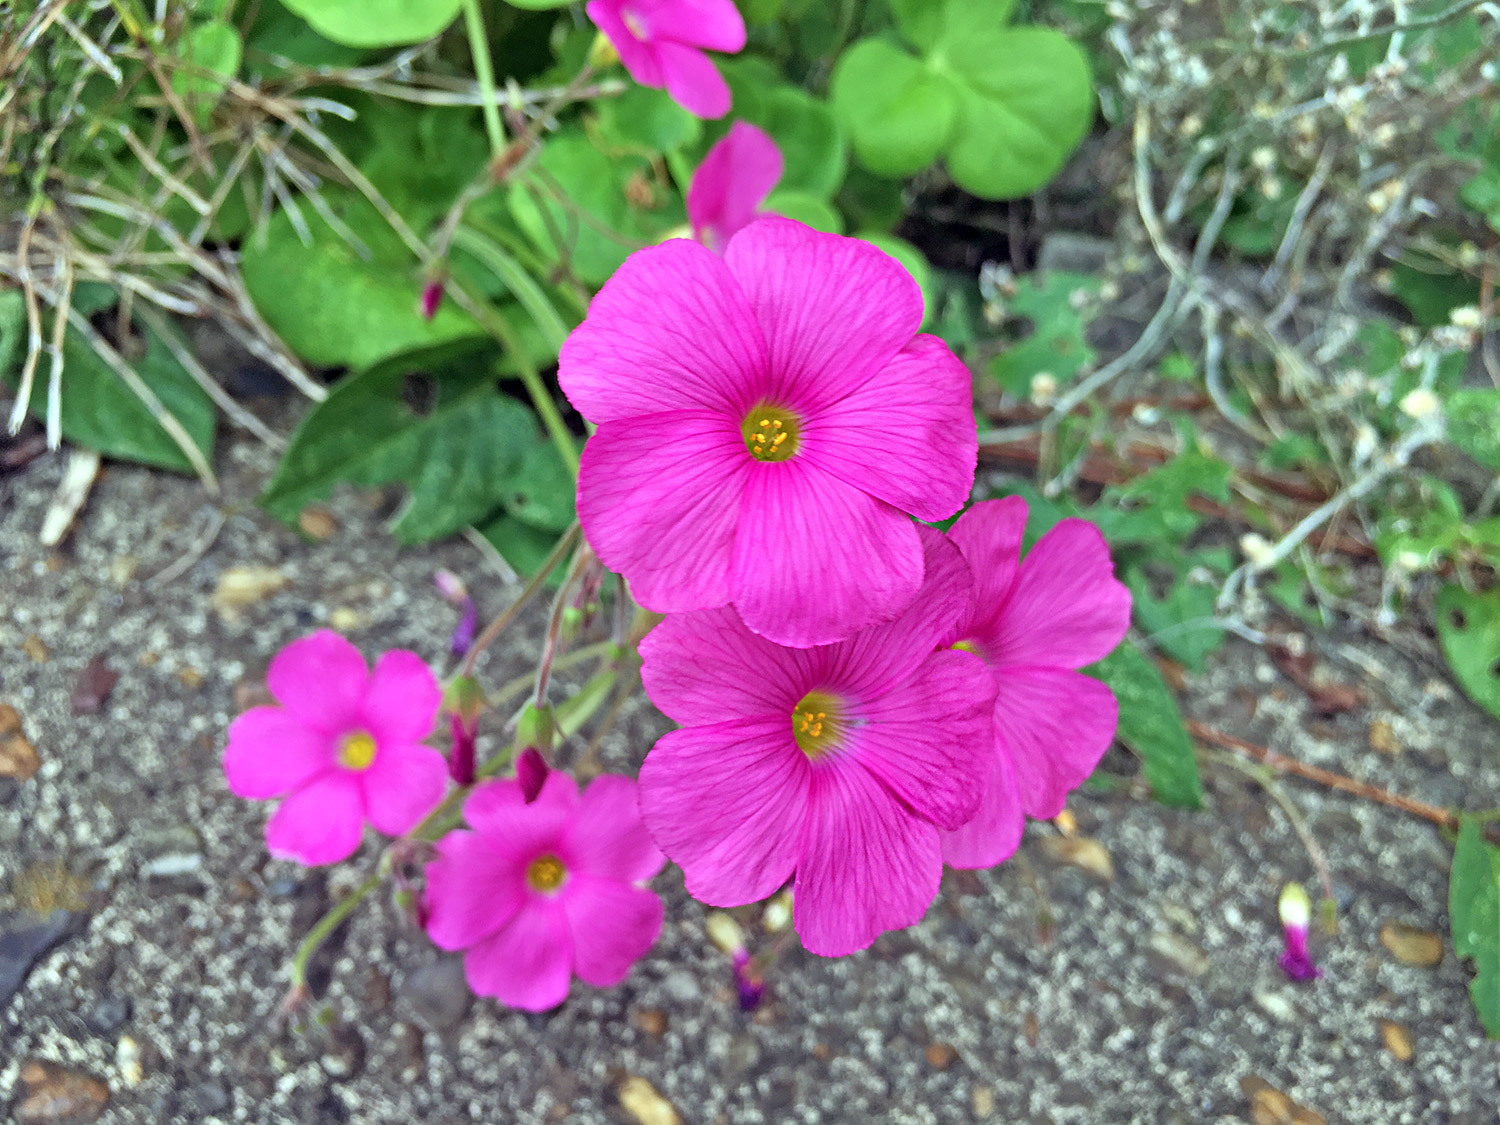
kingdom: Plantae
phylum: Tracheophyta
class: Magnoliopsida
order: Oxalidales
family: Oxalidaceae
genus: Oxalis
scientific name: Oxalis bowiei
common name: Bowie's wood-sorrel
